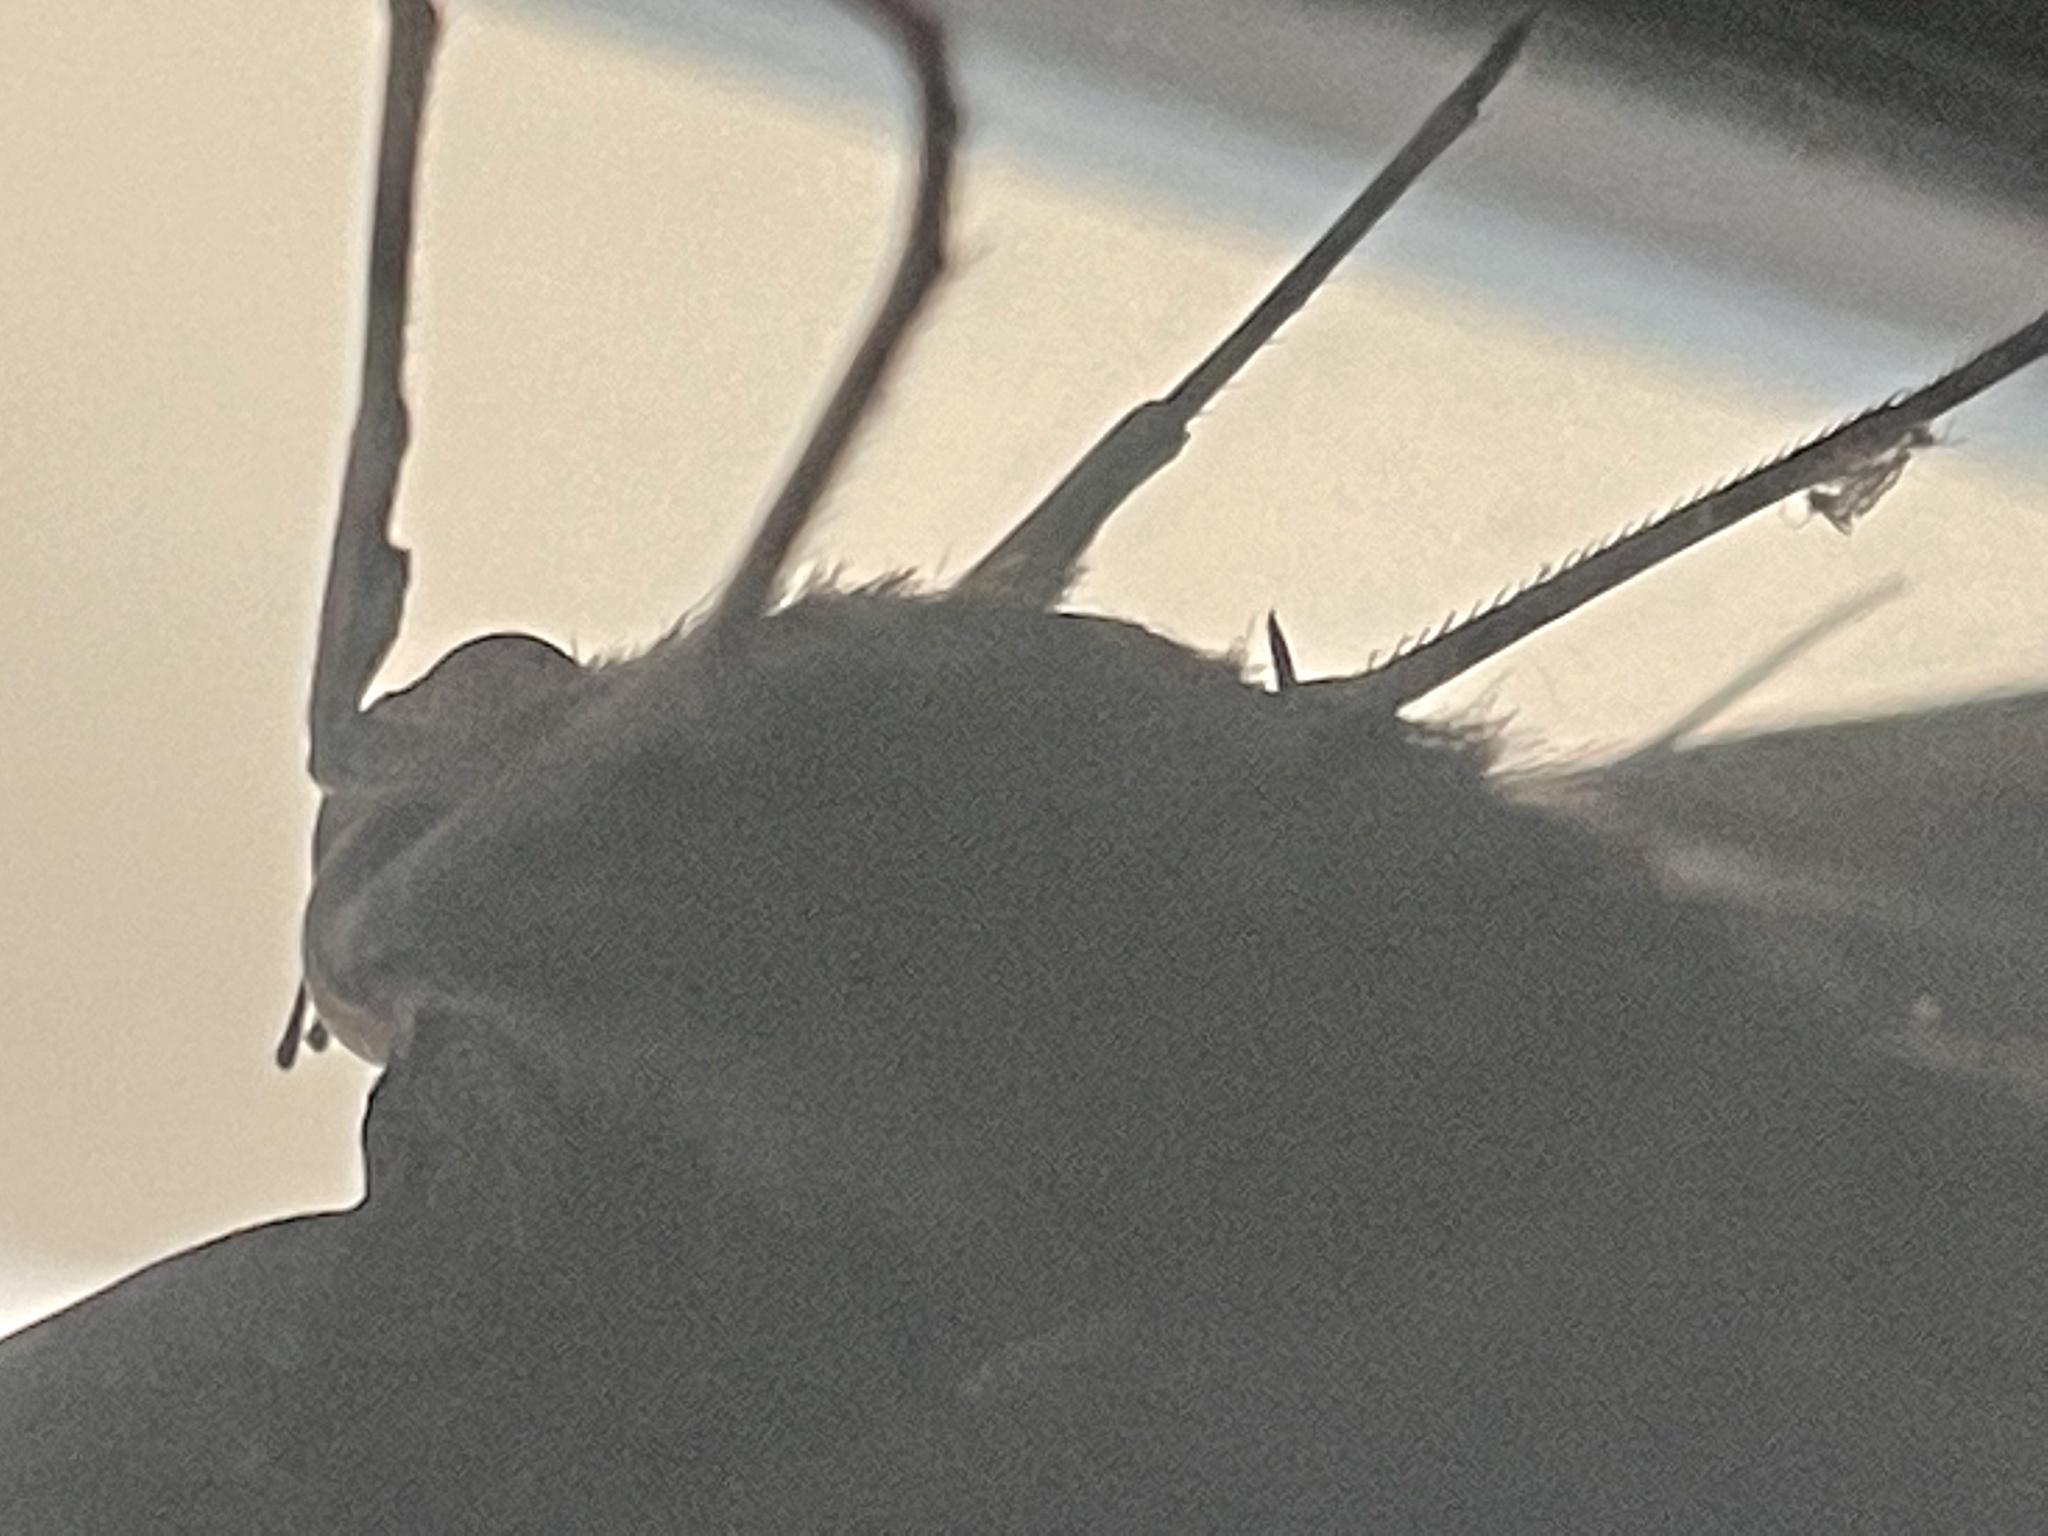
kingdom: Animalia
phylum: Arthropoda
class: Insecta
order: Lepidoptera
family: Erebidae
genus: Ascalapha
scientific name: Ascalapha odorata
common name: Black witch
